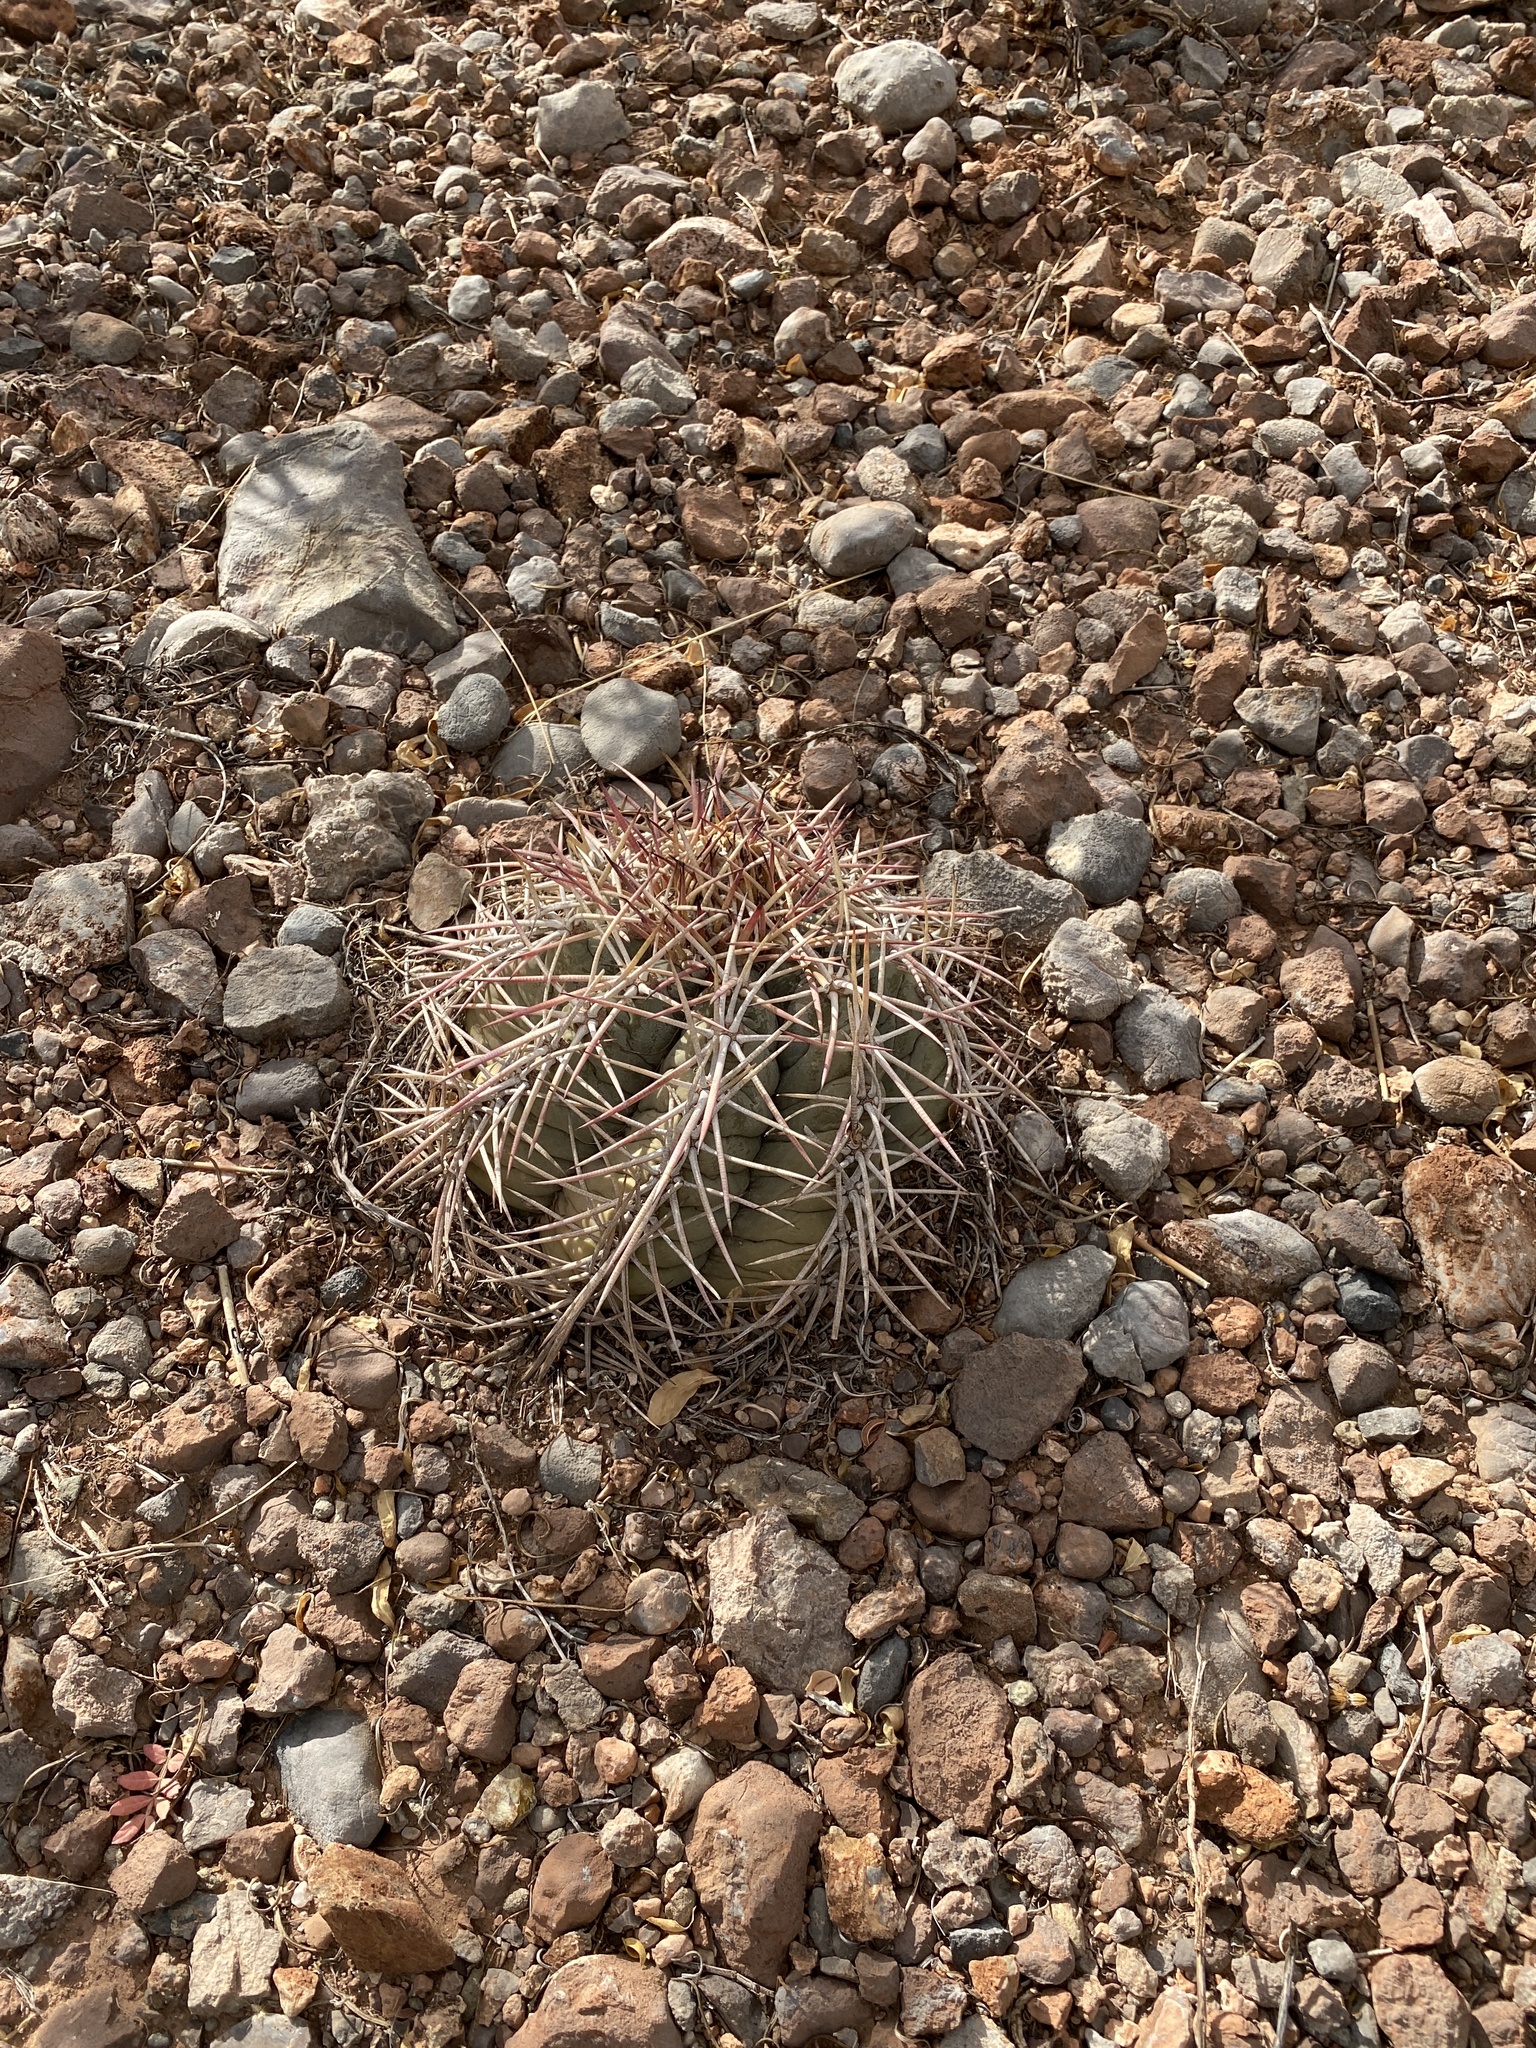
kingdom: Plantae
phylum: Tracheophyta
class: Magnoliopsida
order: Caryophyllales
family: Cactaceae
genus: Echinocactus
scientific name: Echinocactus horizonthalonius
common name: Devilshead
